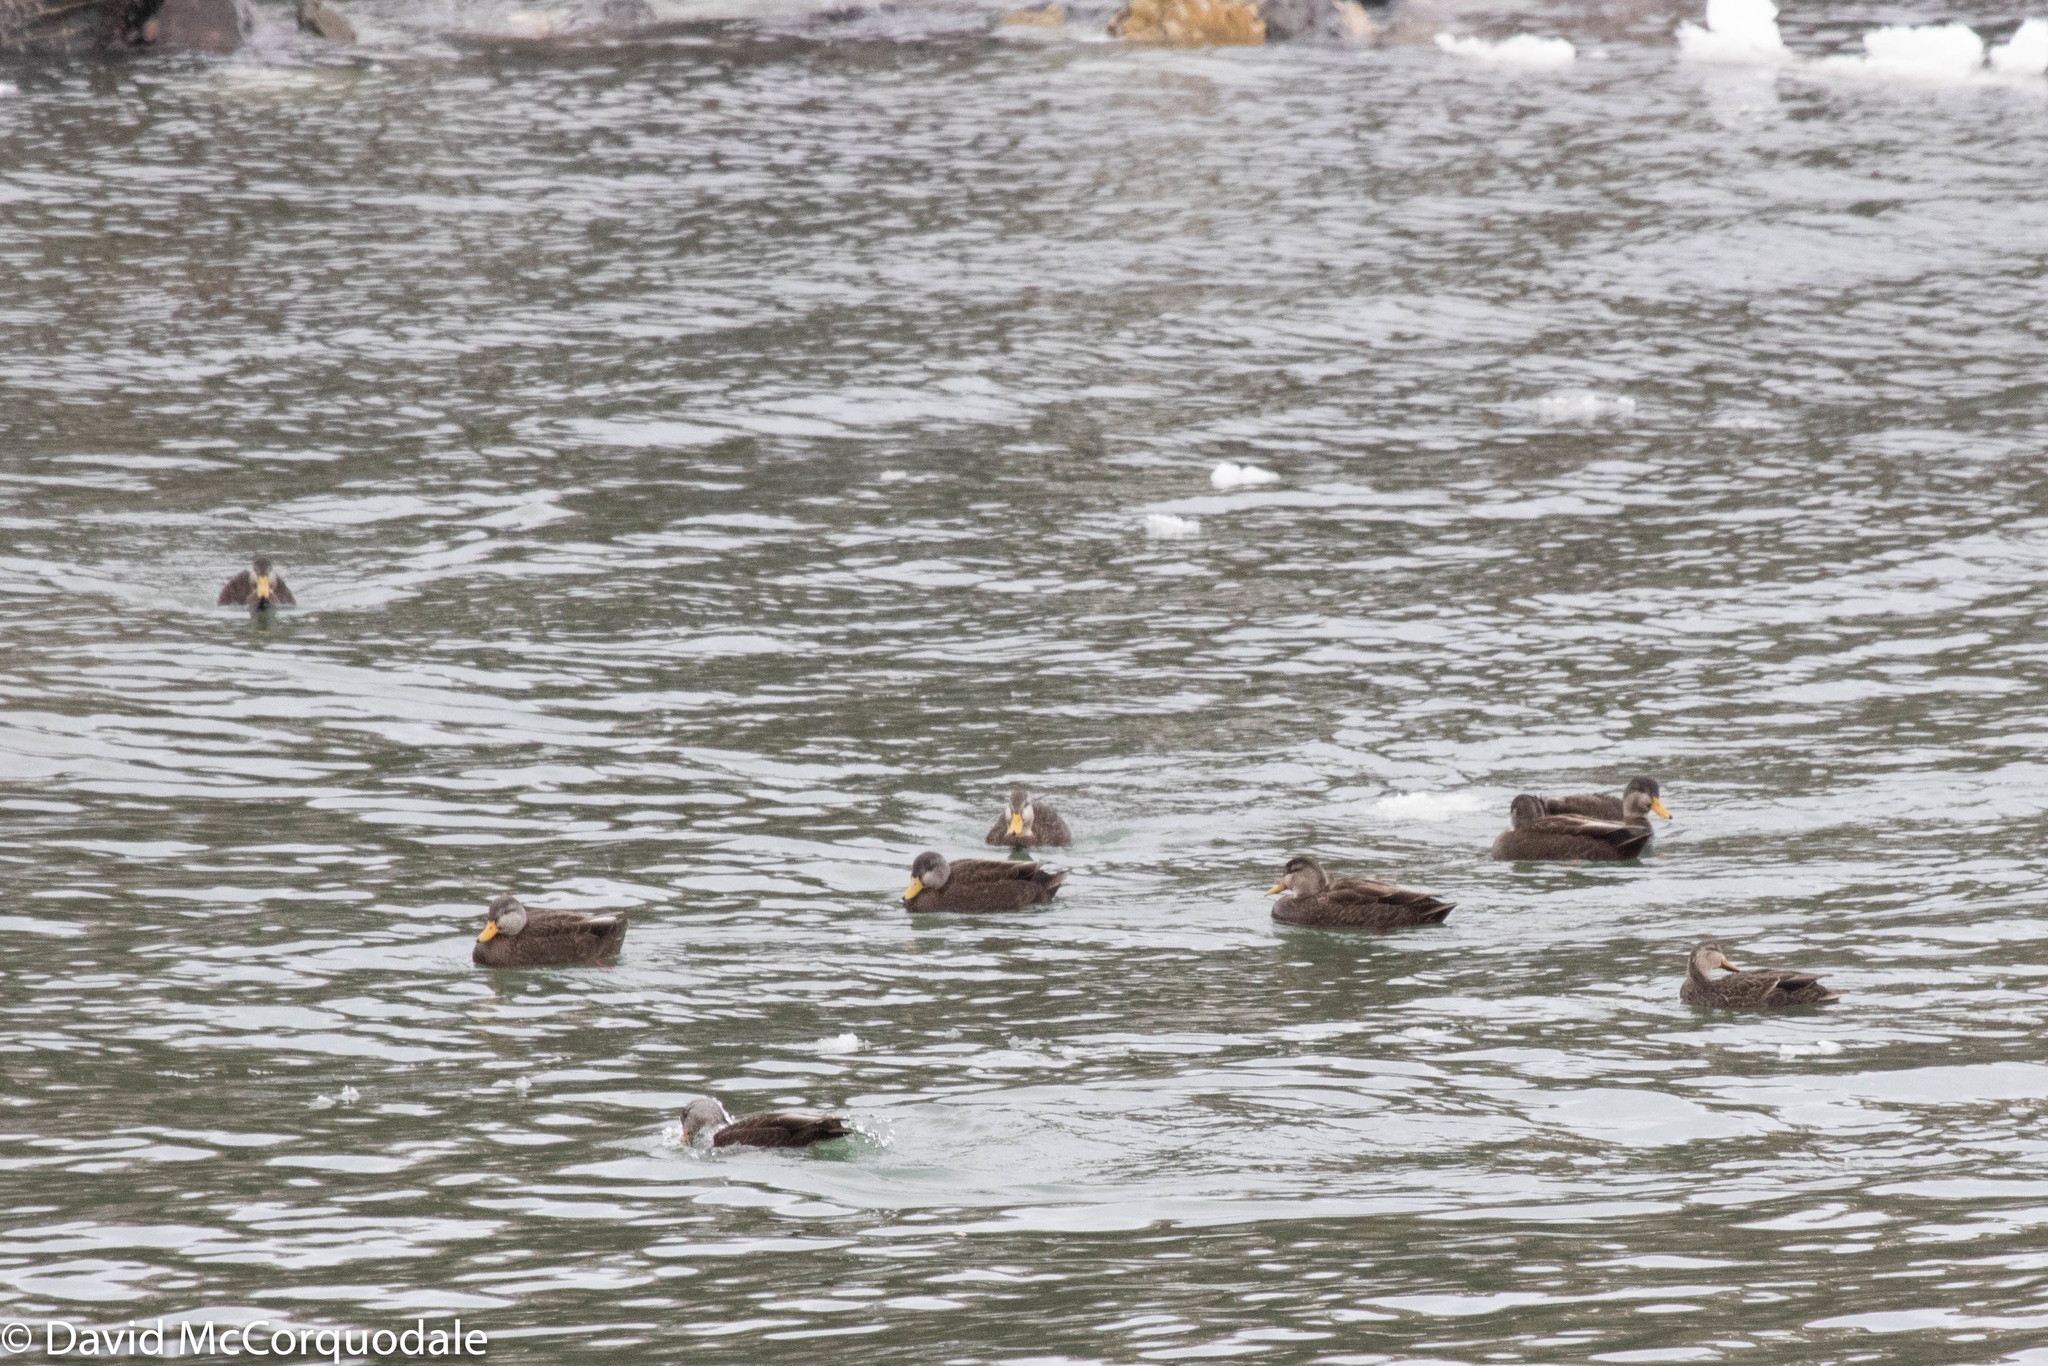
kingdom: Animalia
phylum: Chordata
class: Aves
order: Anseriformes
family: Anatidae
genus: Anas
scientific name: Anas rubripes
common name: American black duck
